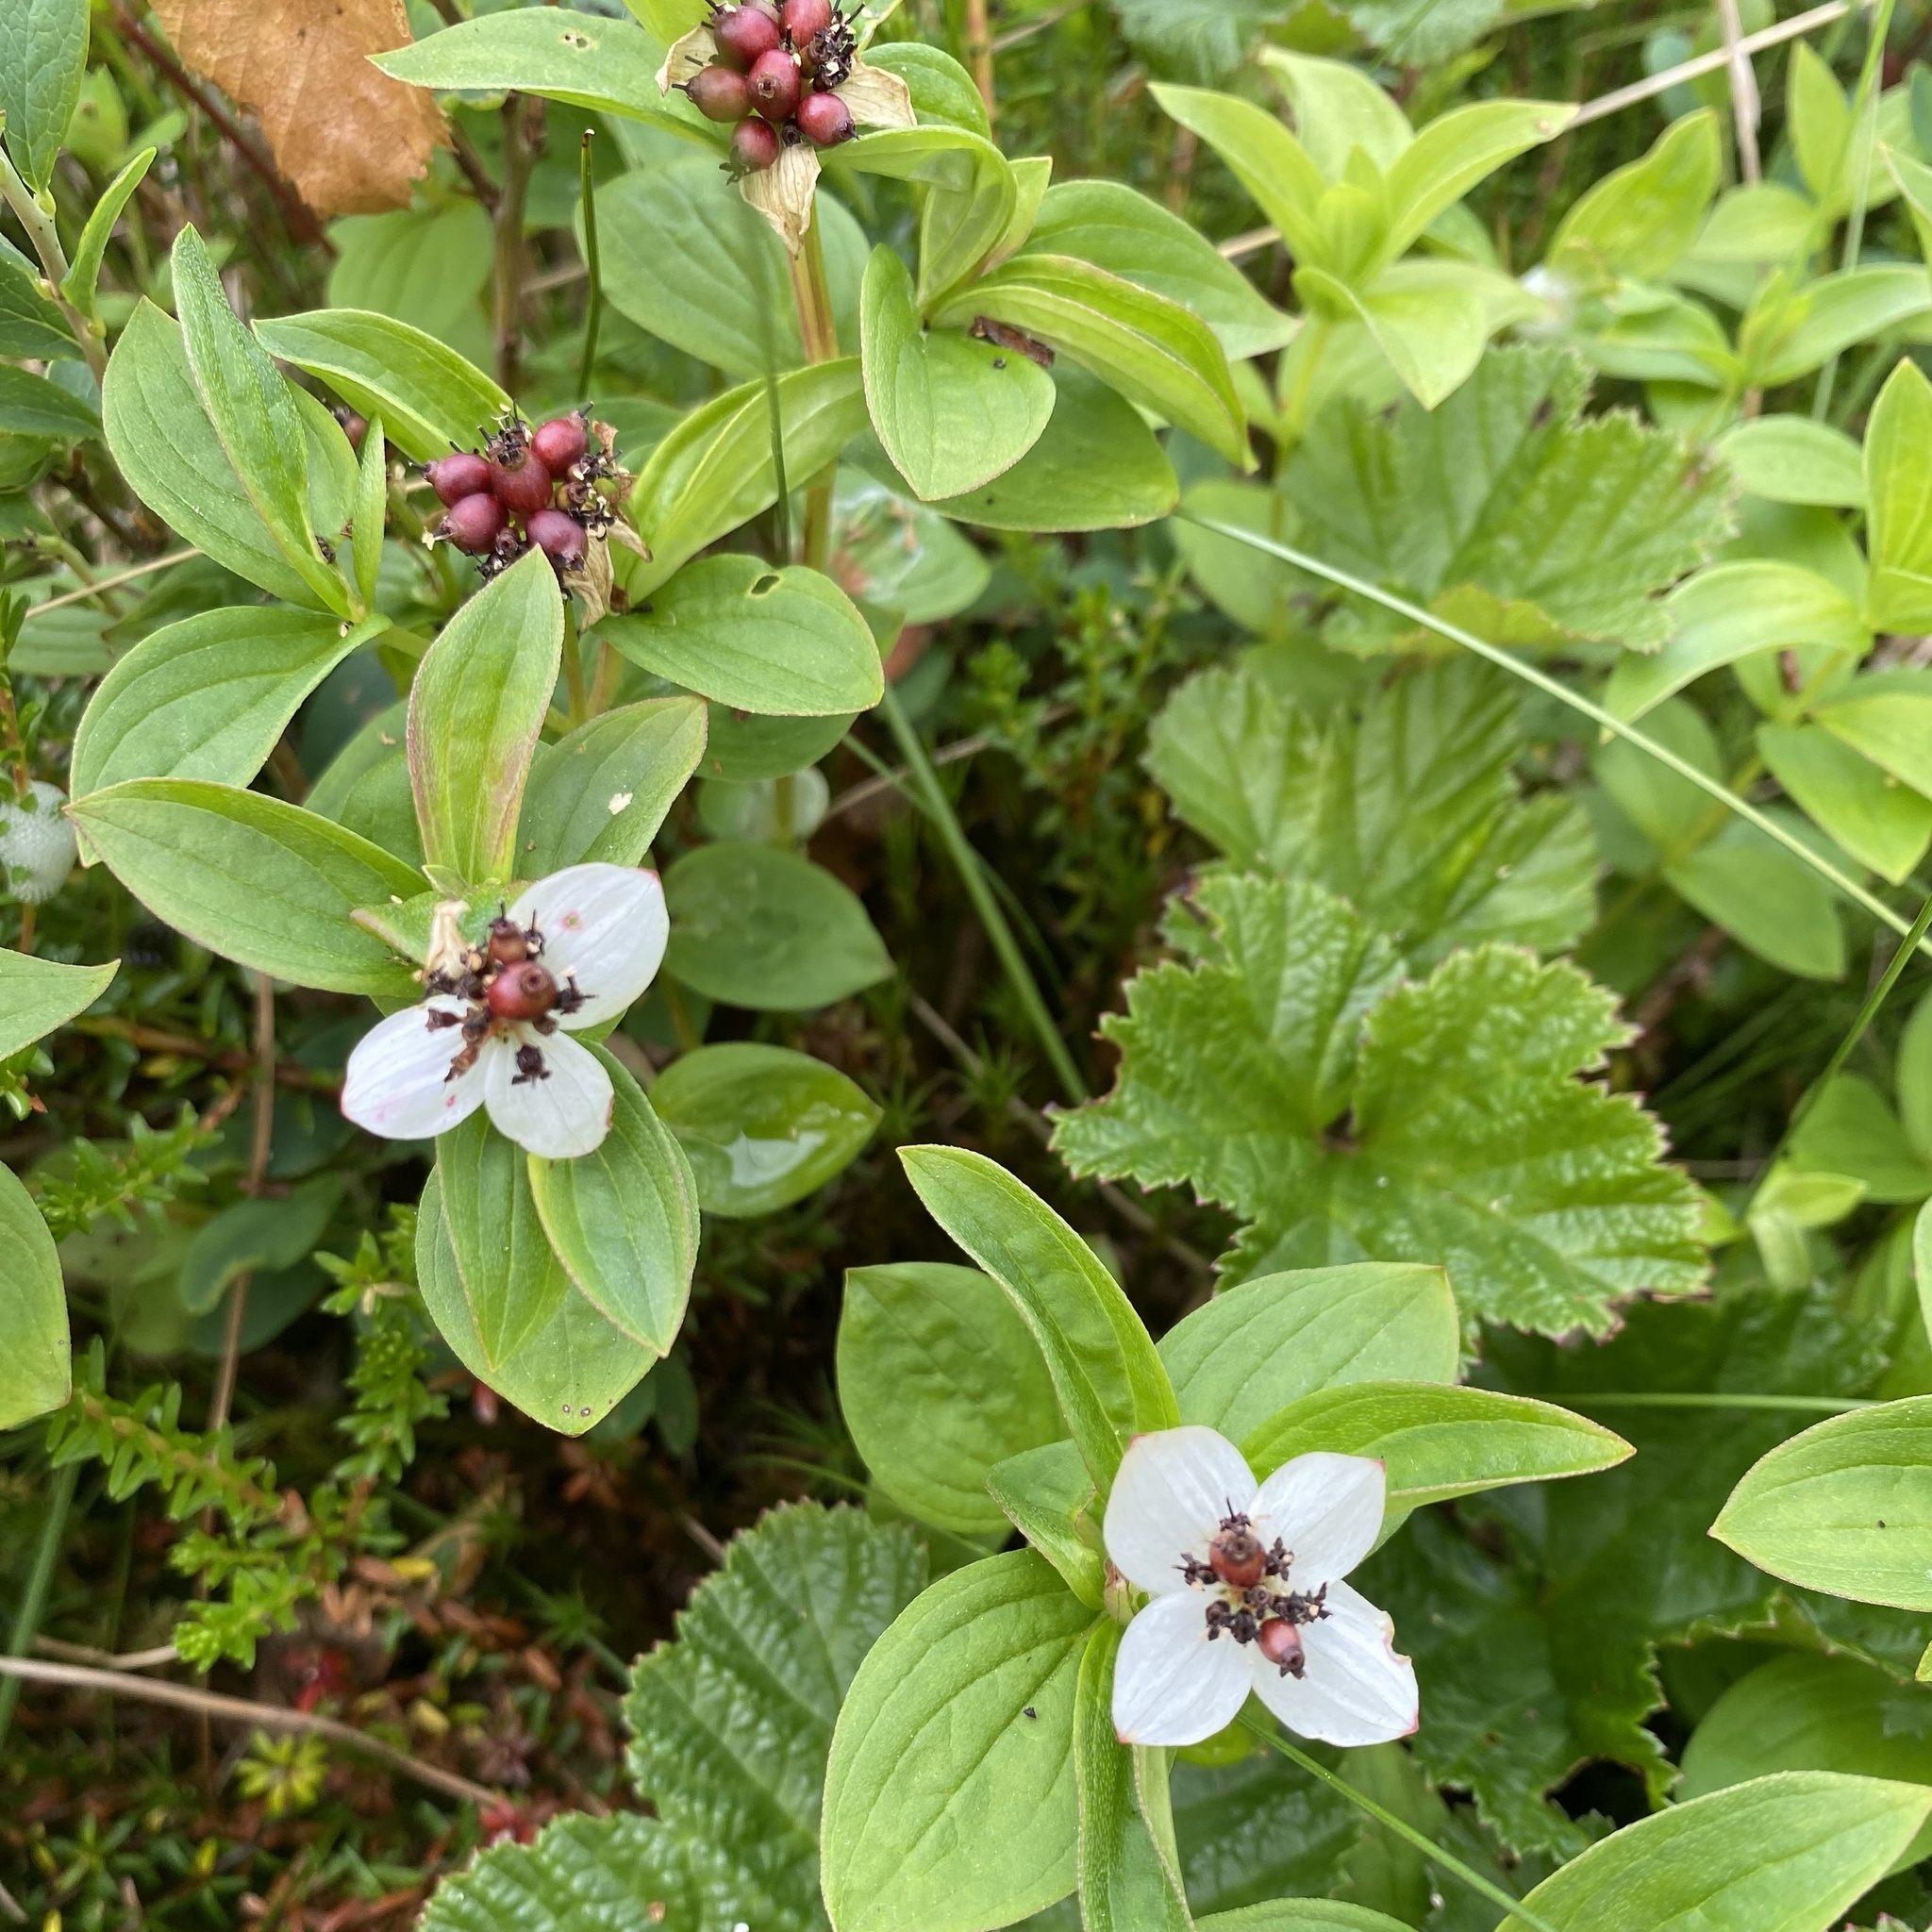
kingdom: Plantae
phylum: Tracheophyta
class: Magnoliopsida
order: Cornales
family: Cornaceae
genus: Cornus
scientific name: Cornus suecica
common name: Dwarf cornel
